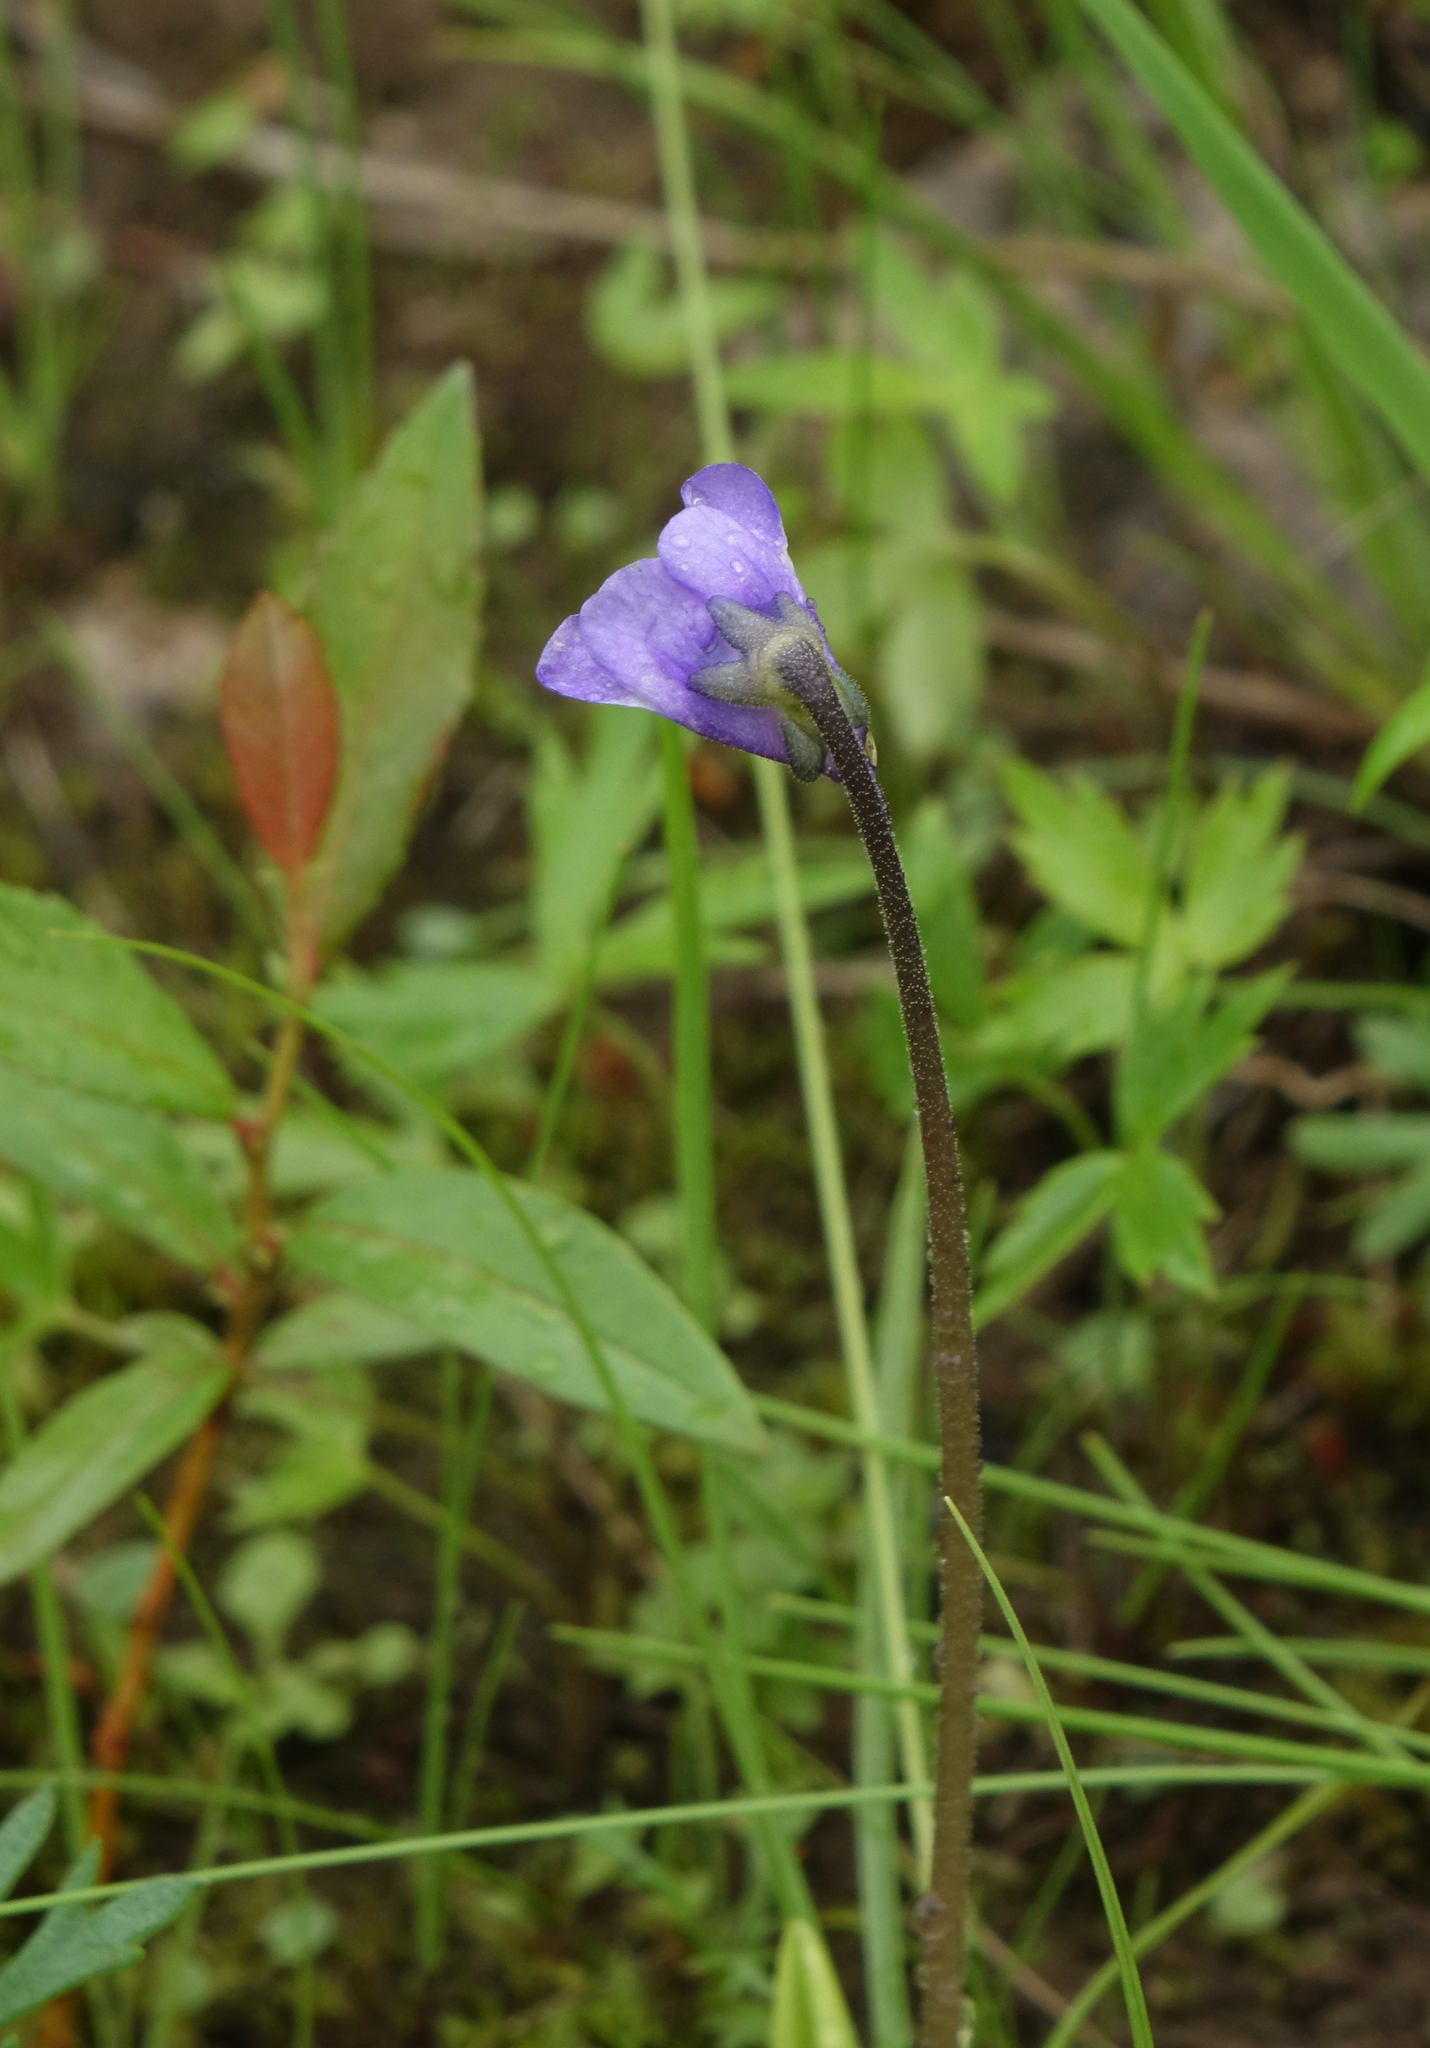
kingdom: Plantae
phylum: Tracheophyta
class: Magnoliopsida
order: Lamiales
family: Lentibulariaceae
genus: Pinguicula
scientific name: Pinguicula vulgaris
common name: Common butterwort
